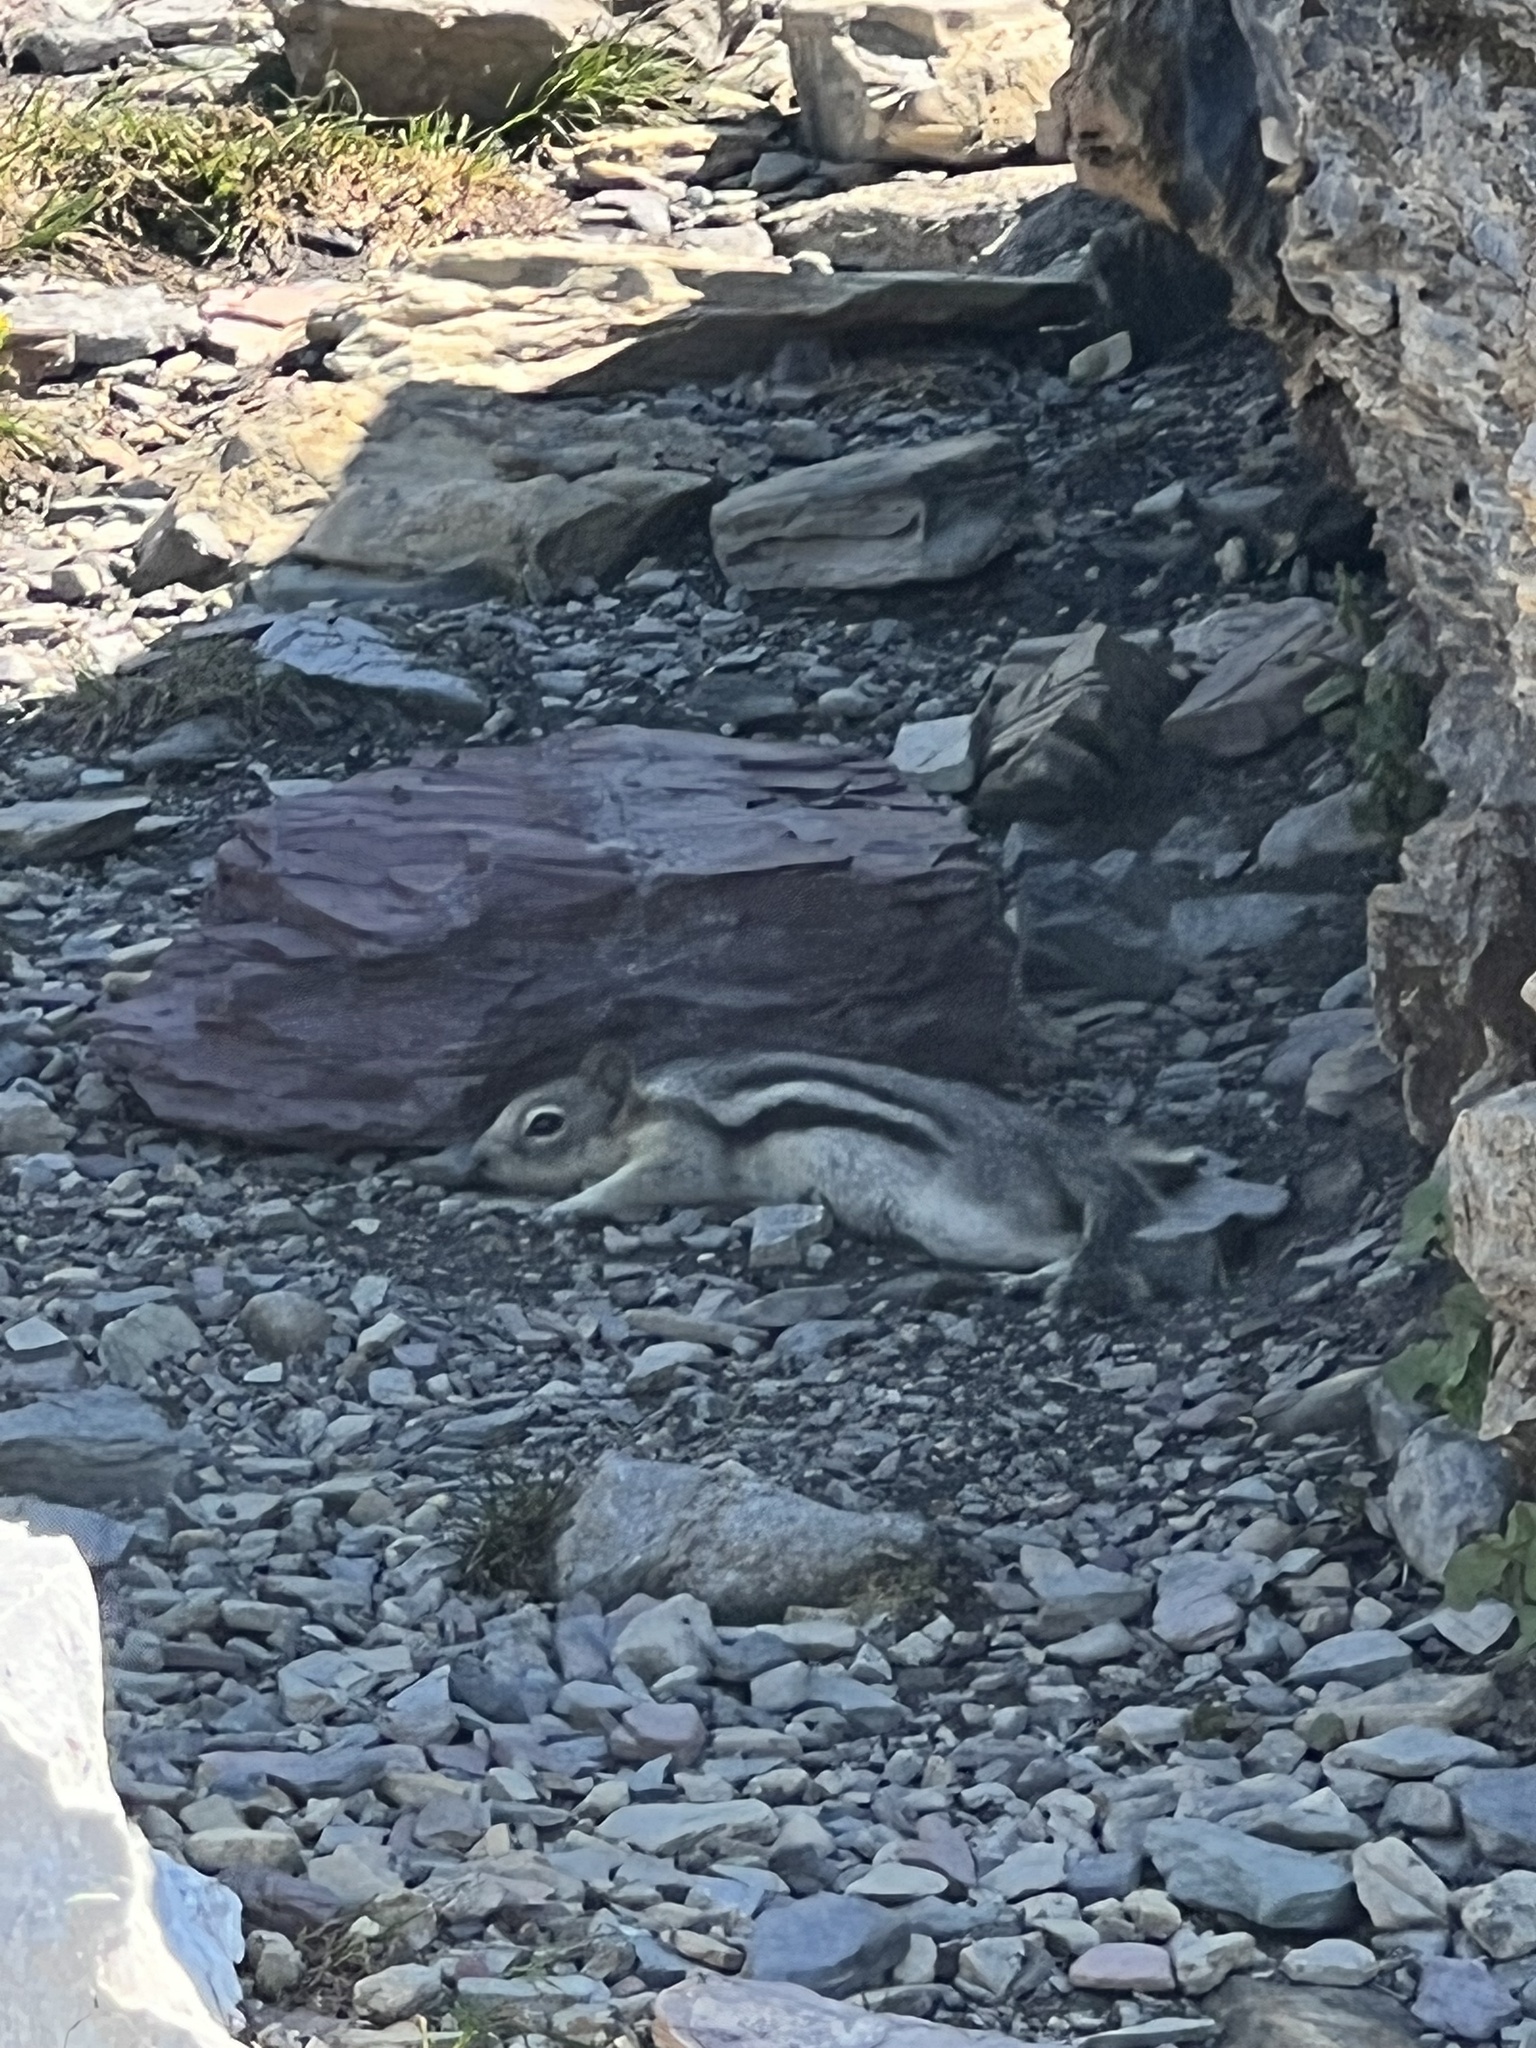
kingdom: Animalia
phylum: Chordata
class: Mammalia
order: Rodentia
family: Sciuridae
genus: Callospermophilus
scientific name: Callospermophilus lateralis
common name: Golden-mantled ground squirrel
